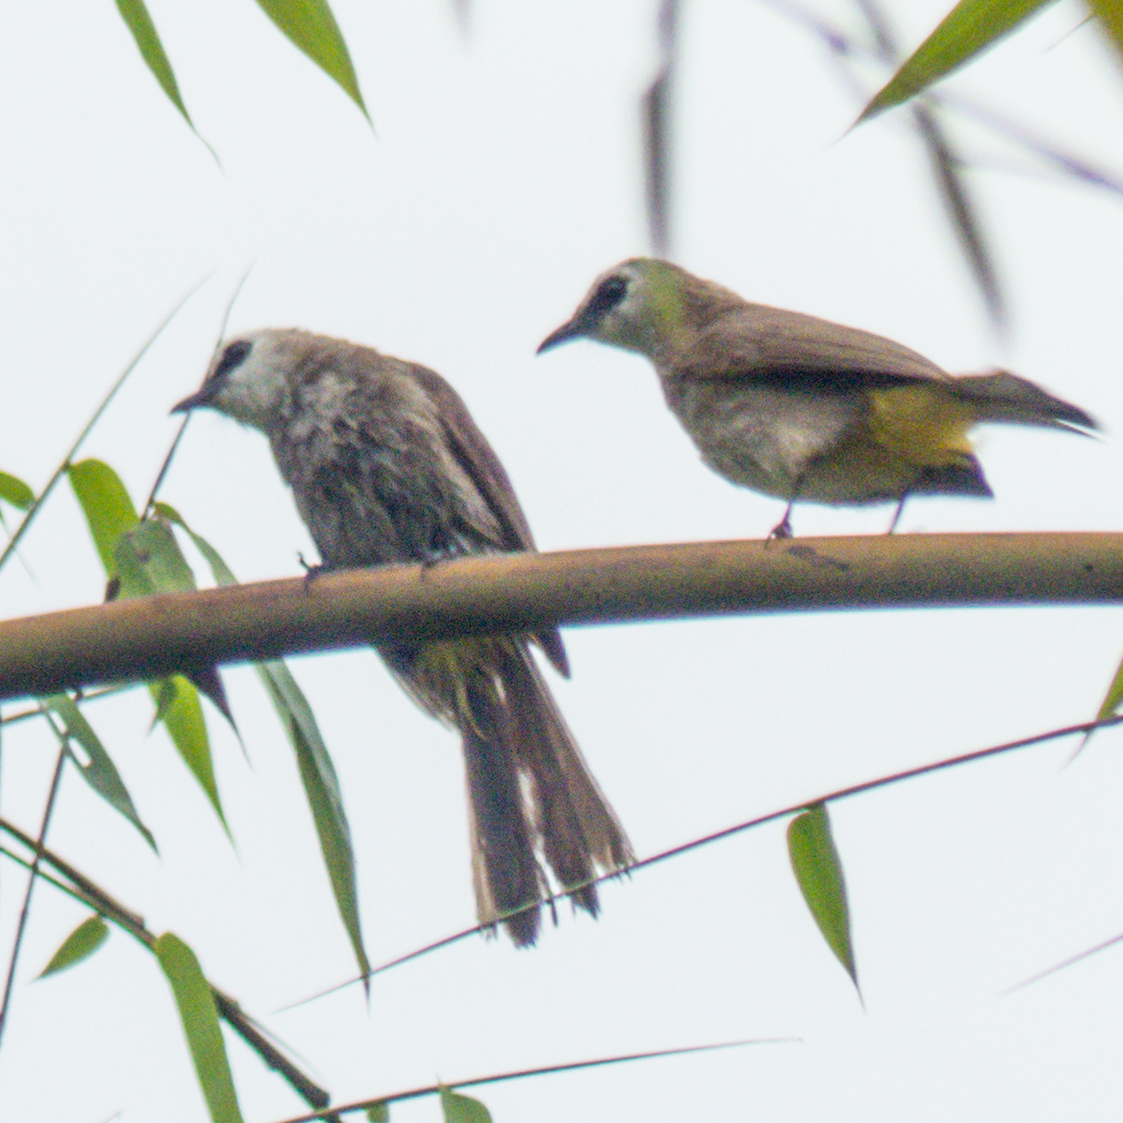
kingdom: Animalia
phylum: Chordata
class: Aves
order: Passeriformes
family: Pycnonotidae
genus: Pycnonotus
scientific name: Pycnonotus goiavier
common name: Yellow-vented bulbul
